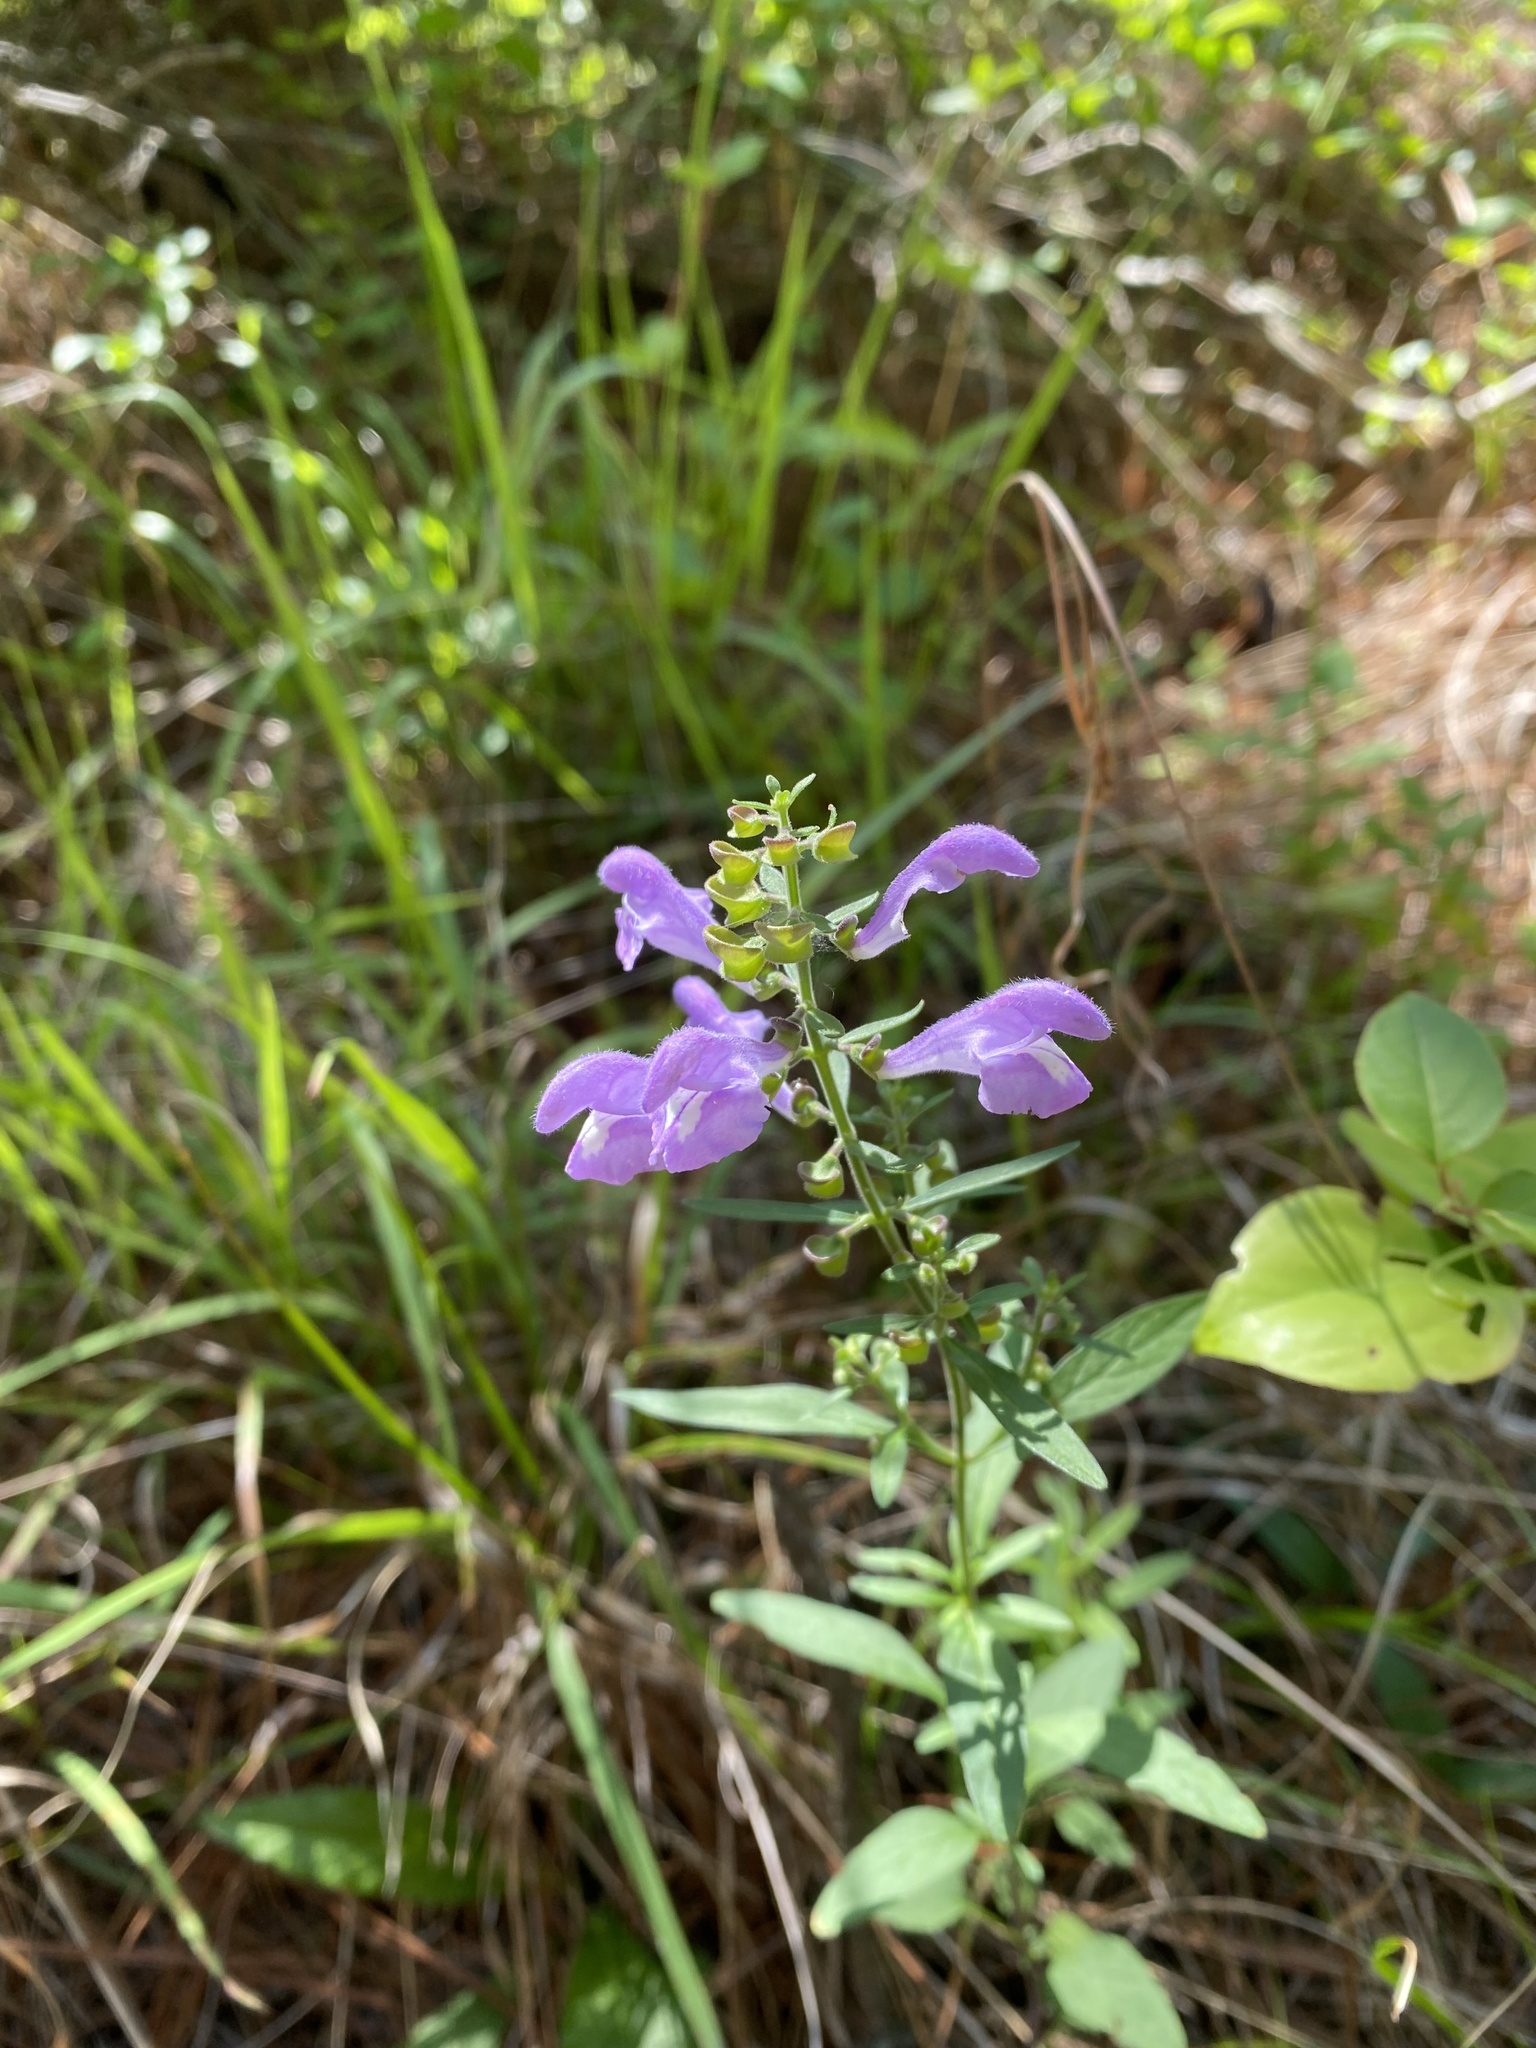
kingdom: Plantae
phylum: Tracheophyta
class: Magnoliopsida
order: Lamiales
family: Lamiaceae
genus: Scutellaria
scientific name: Scutellaria integrifolia
